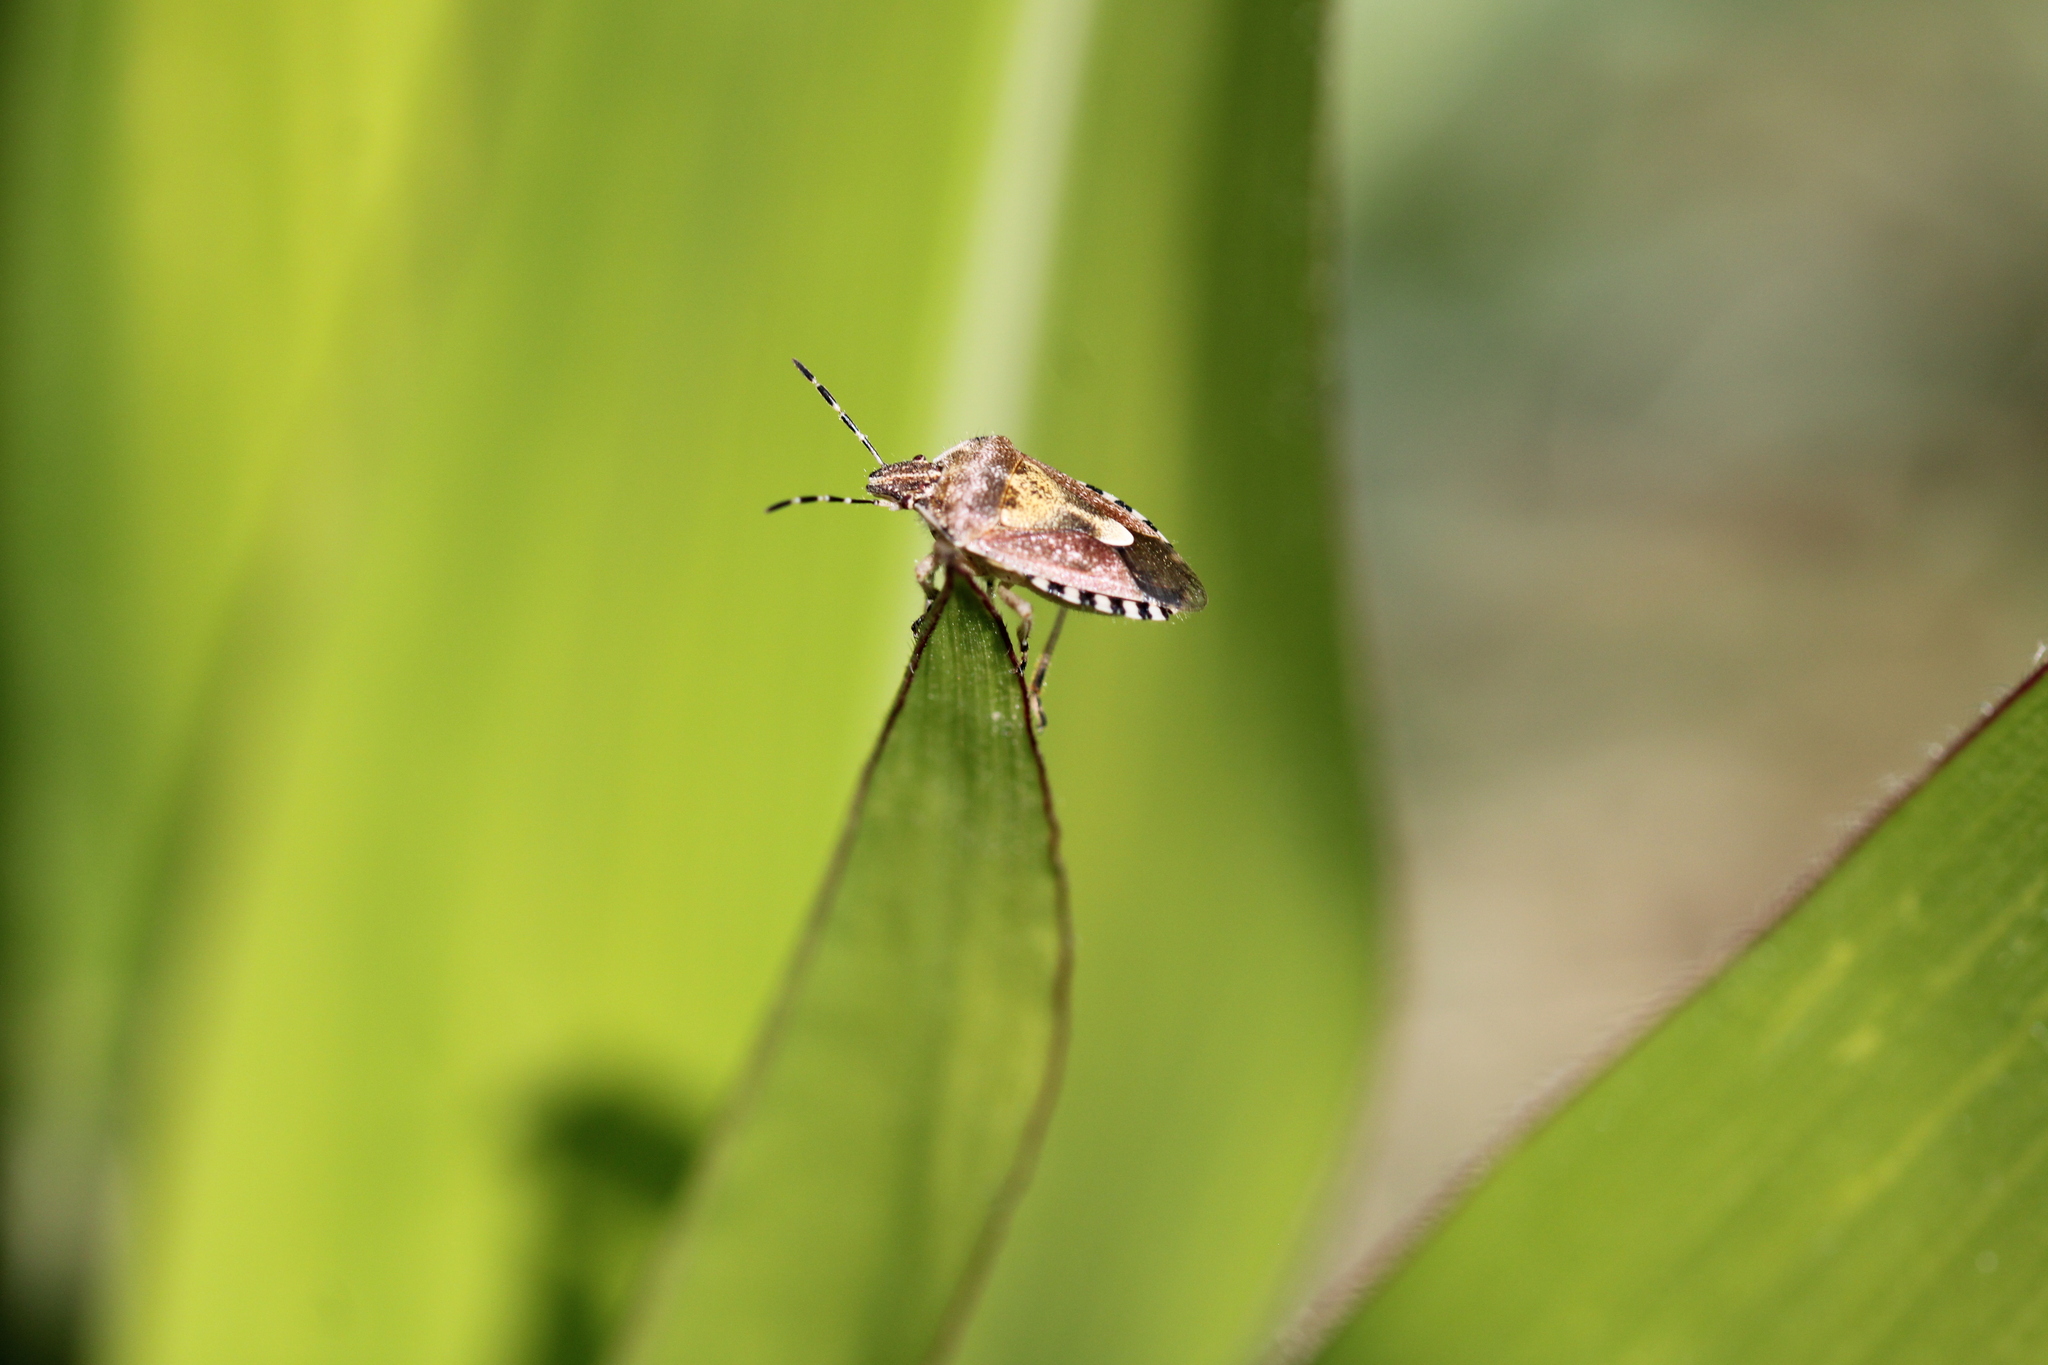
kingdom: Animalia
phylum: Arthropoda
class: Insecta
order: Hemiptera
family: Pentatomidae
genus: Dolycoris
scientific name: Dolycoris baccarum
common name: Sloe bug
